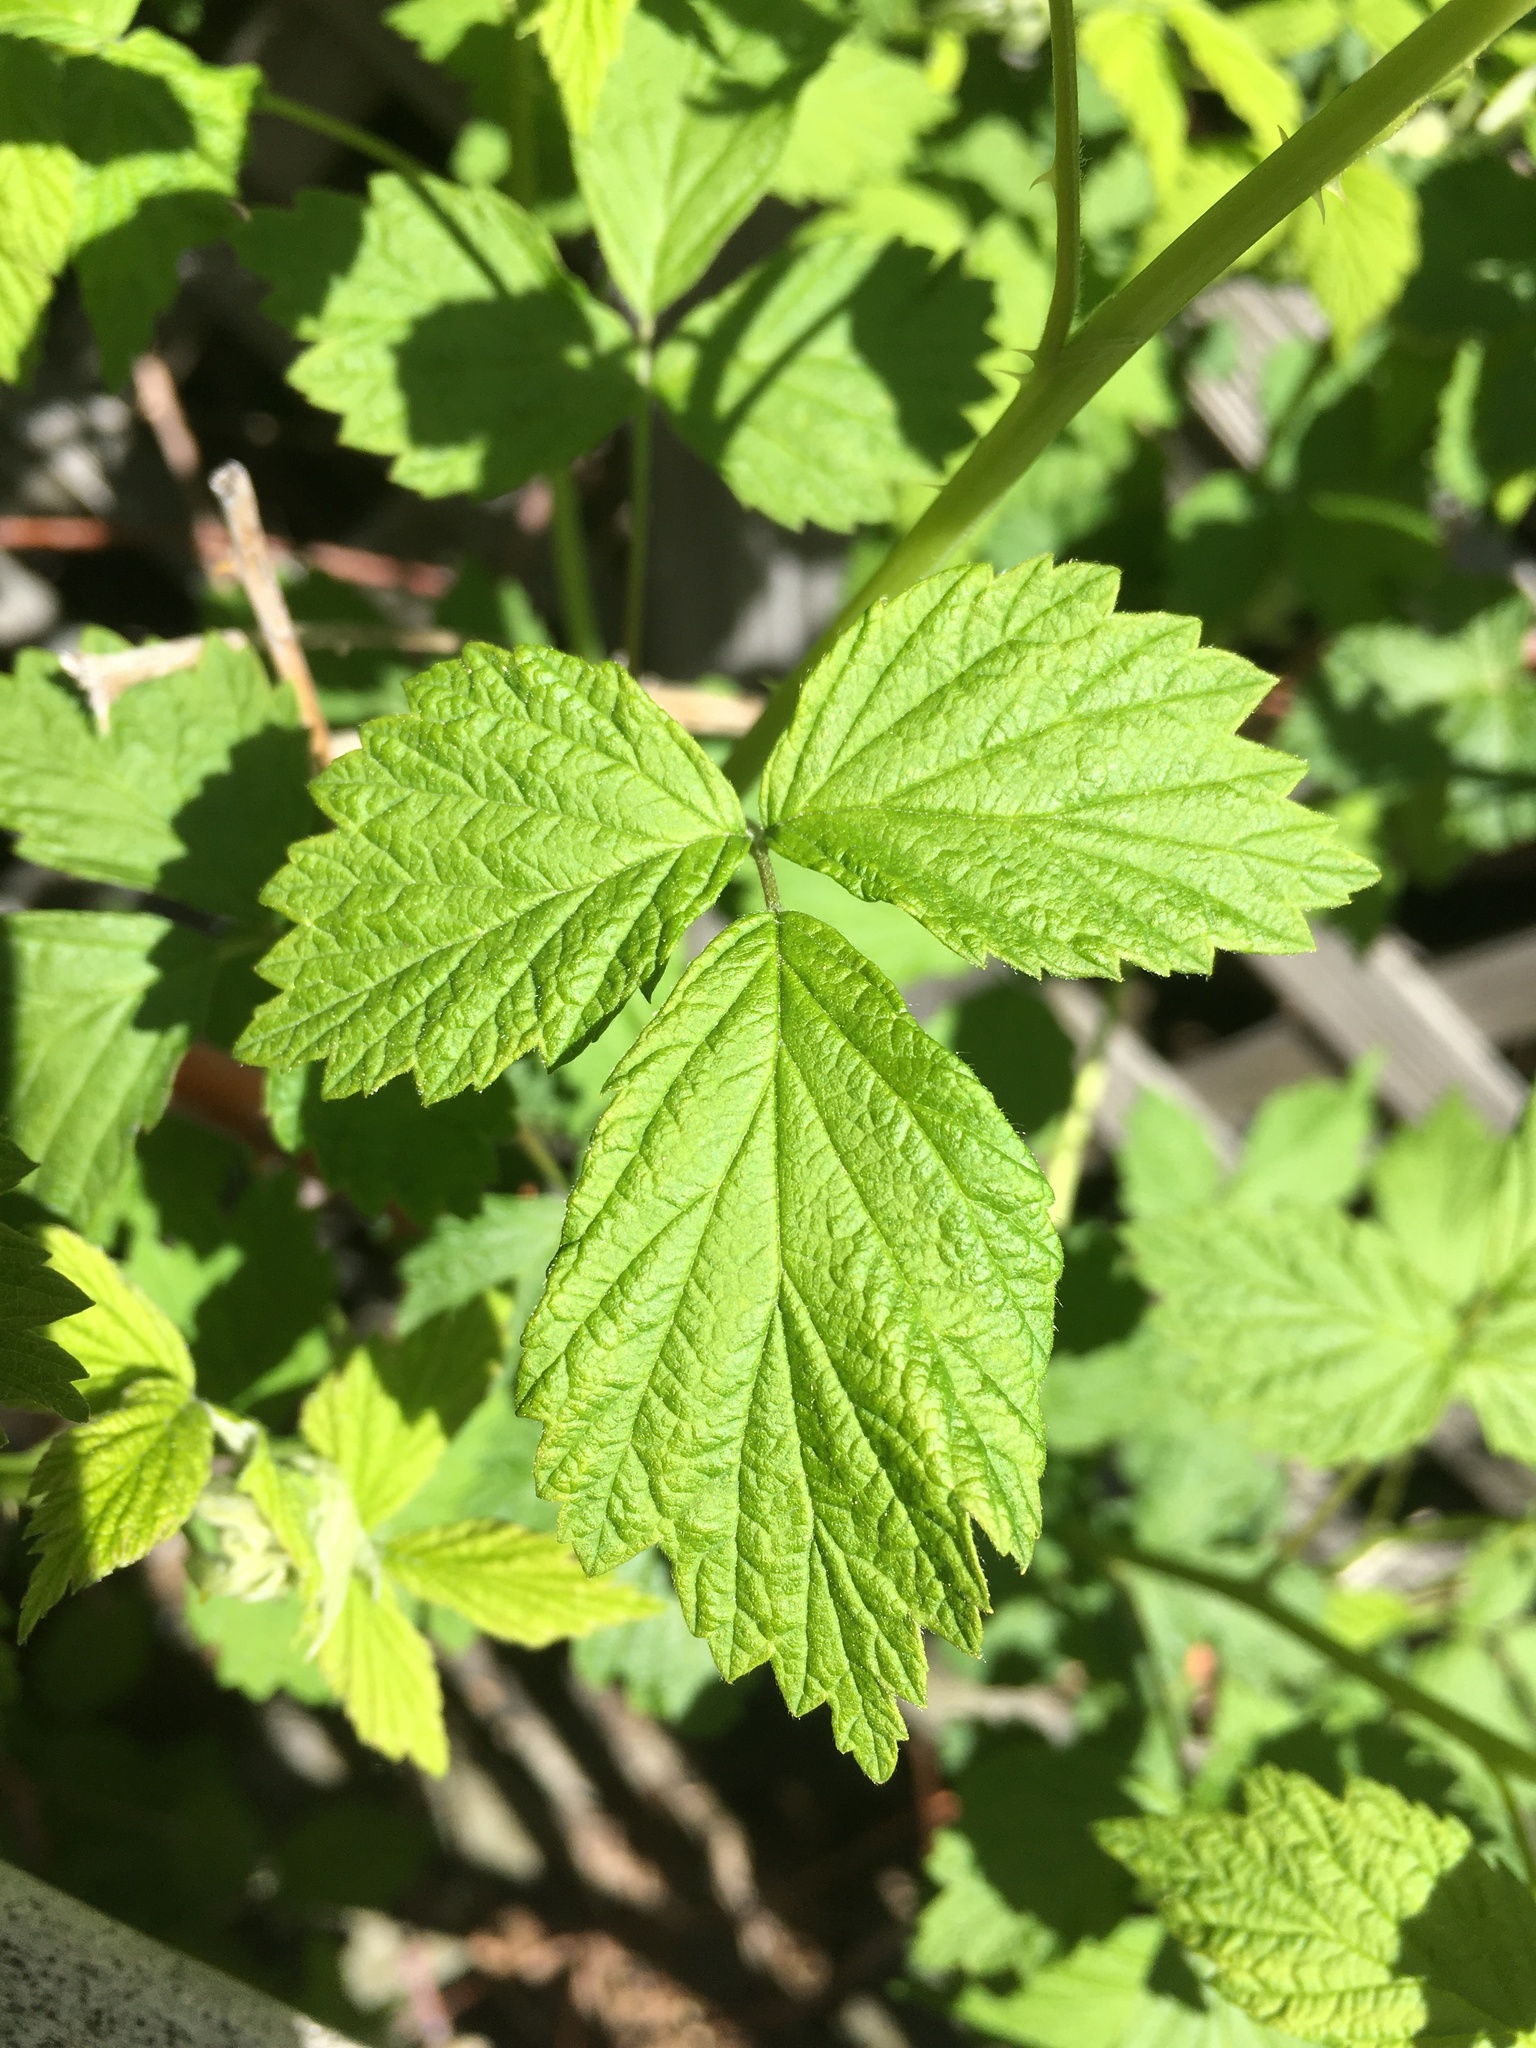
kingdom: Plantae
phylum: Tracheophyta
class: Magnoliopsida
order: Rosales
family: Rosaceae
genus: Rubus
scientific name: Rubus occidentalis
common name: Black raspberry
